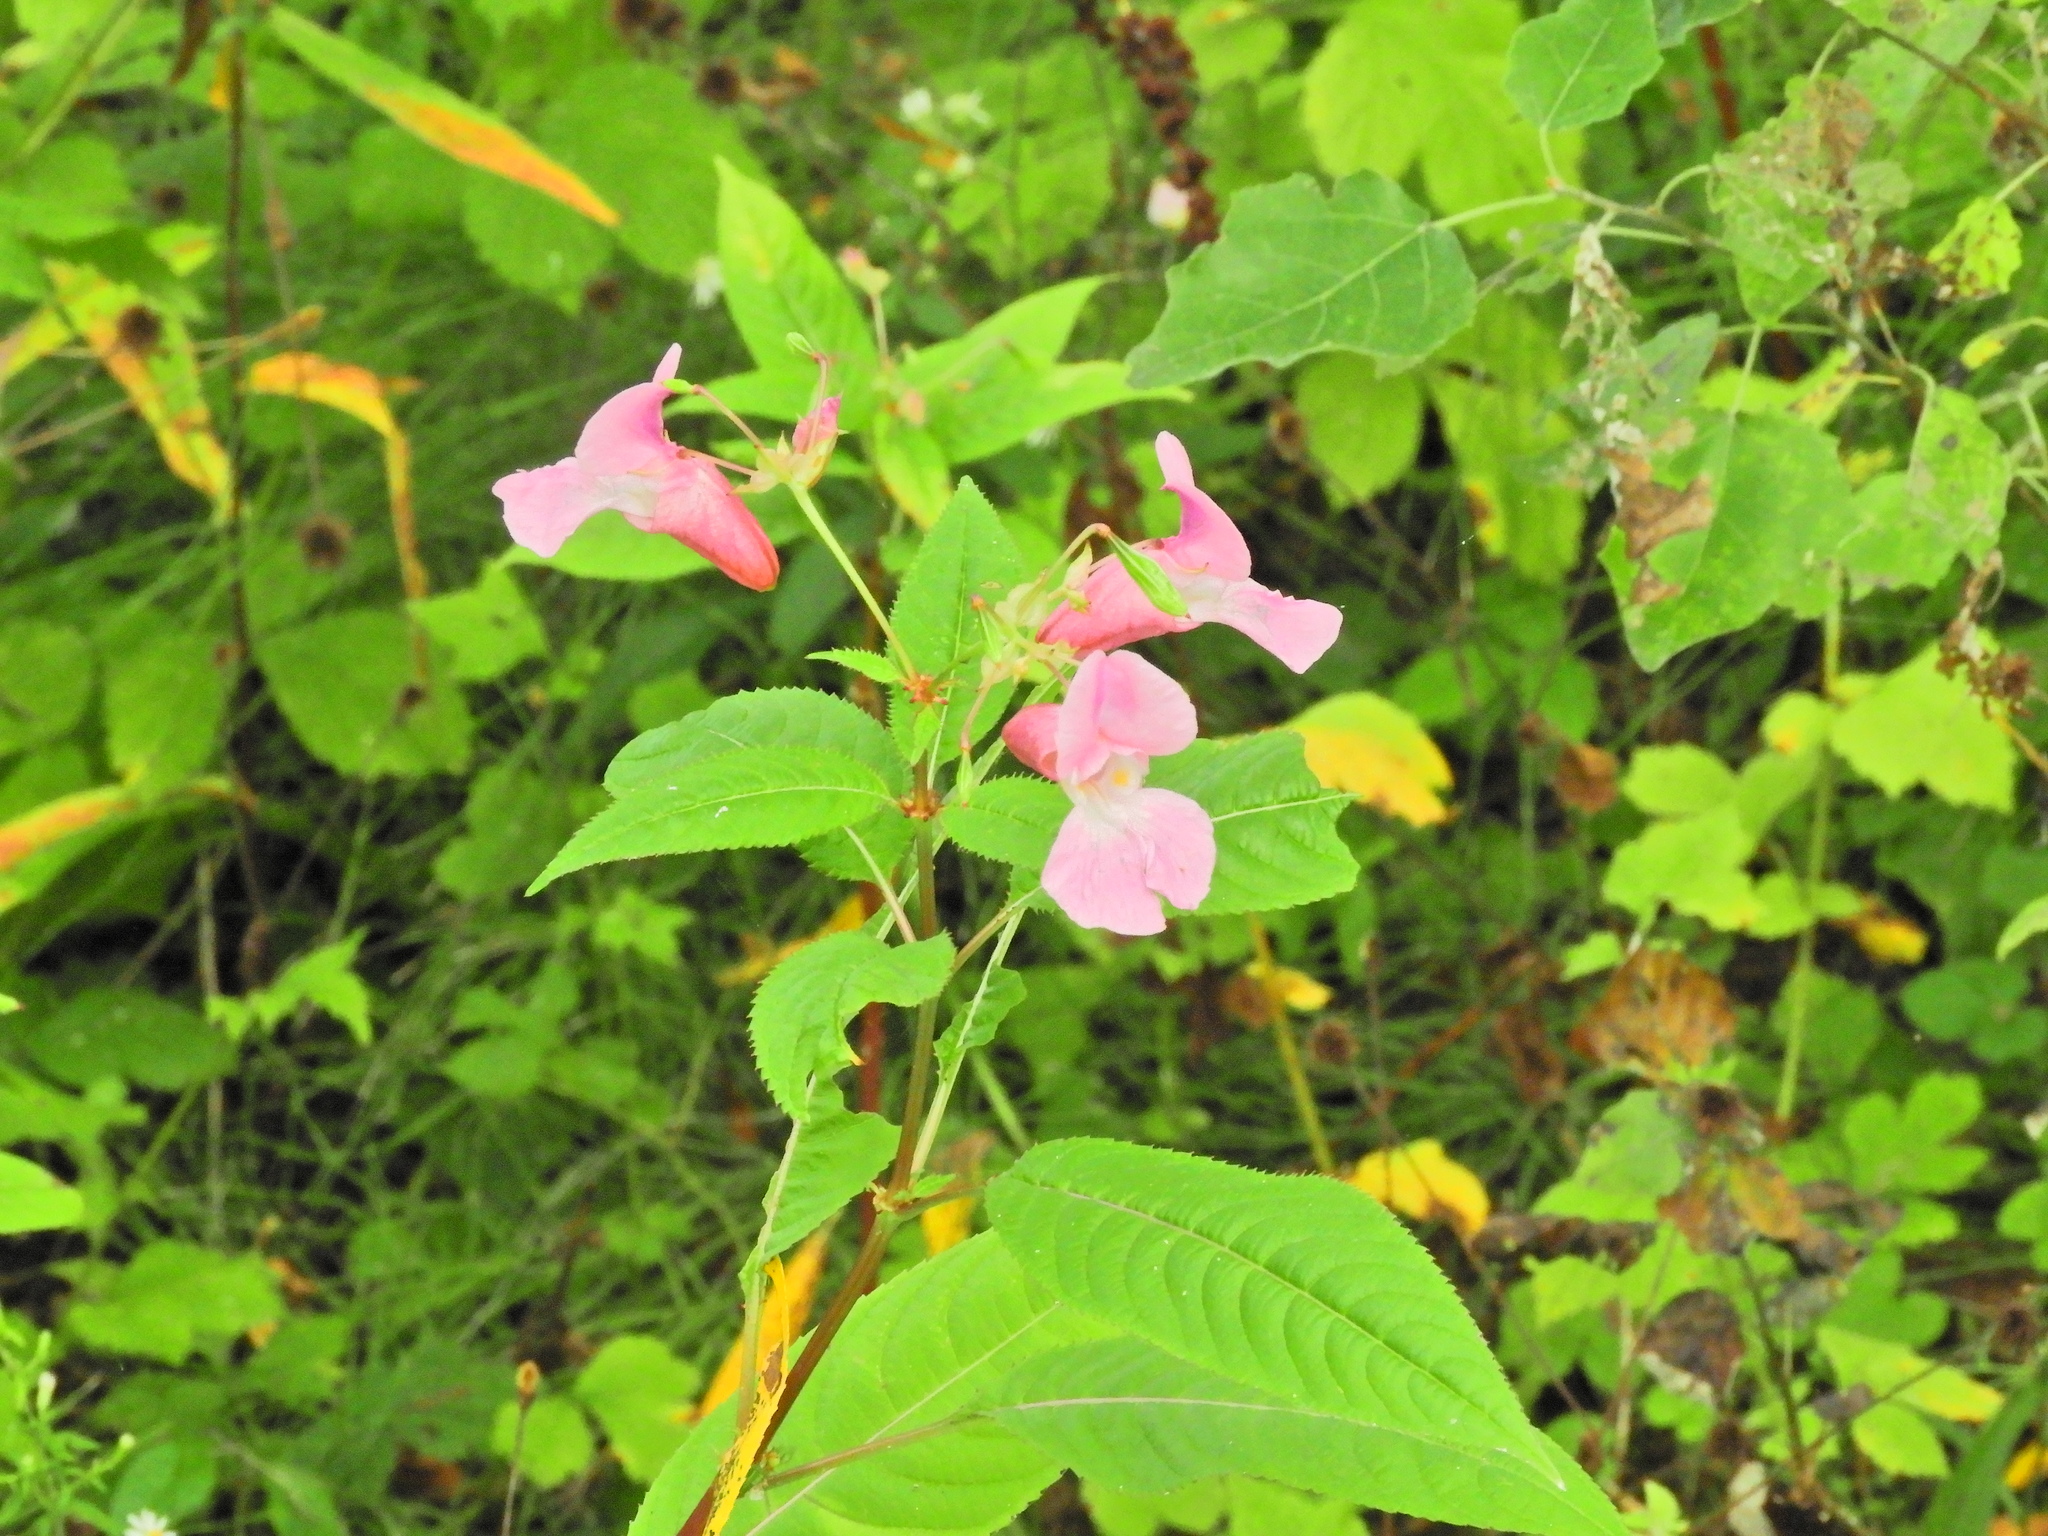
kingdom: Plantae
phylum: Tracheophyta
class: Magnoliopsida
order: Ericales
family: Balsaminaceae
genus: Impatiens
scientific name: Impatiens glandulifera
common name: Himalayan balsam
